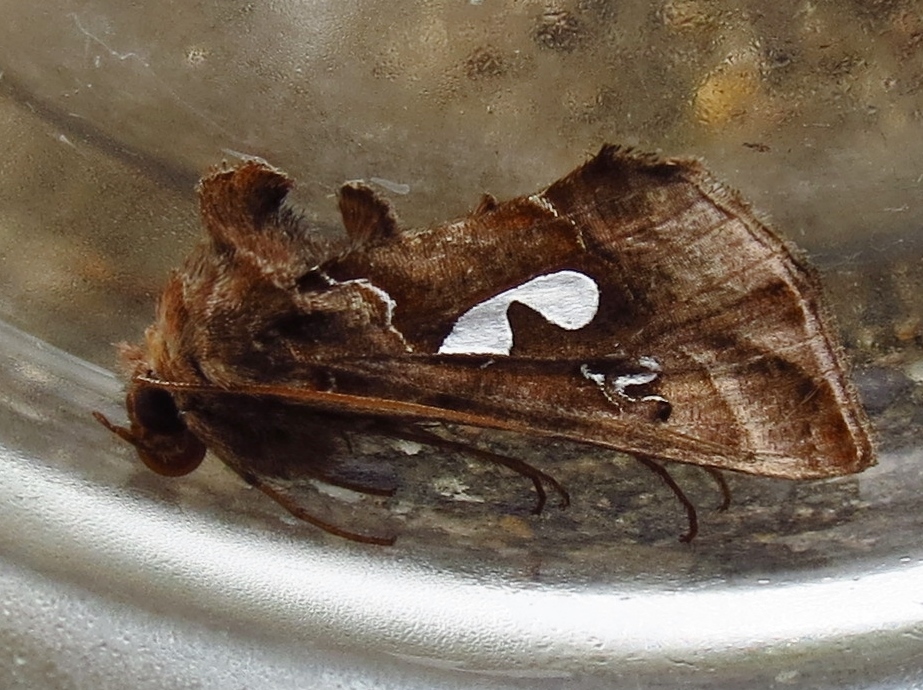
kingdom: Animalia
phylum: Arthropoda
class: Insecta
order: Lepidoptera
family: Noctuidae
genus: Megalographa
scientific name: Megalographa biloba
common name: Cutworm
